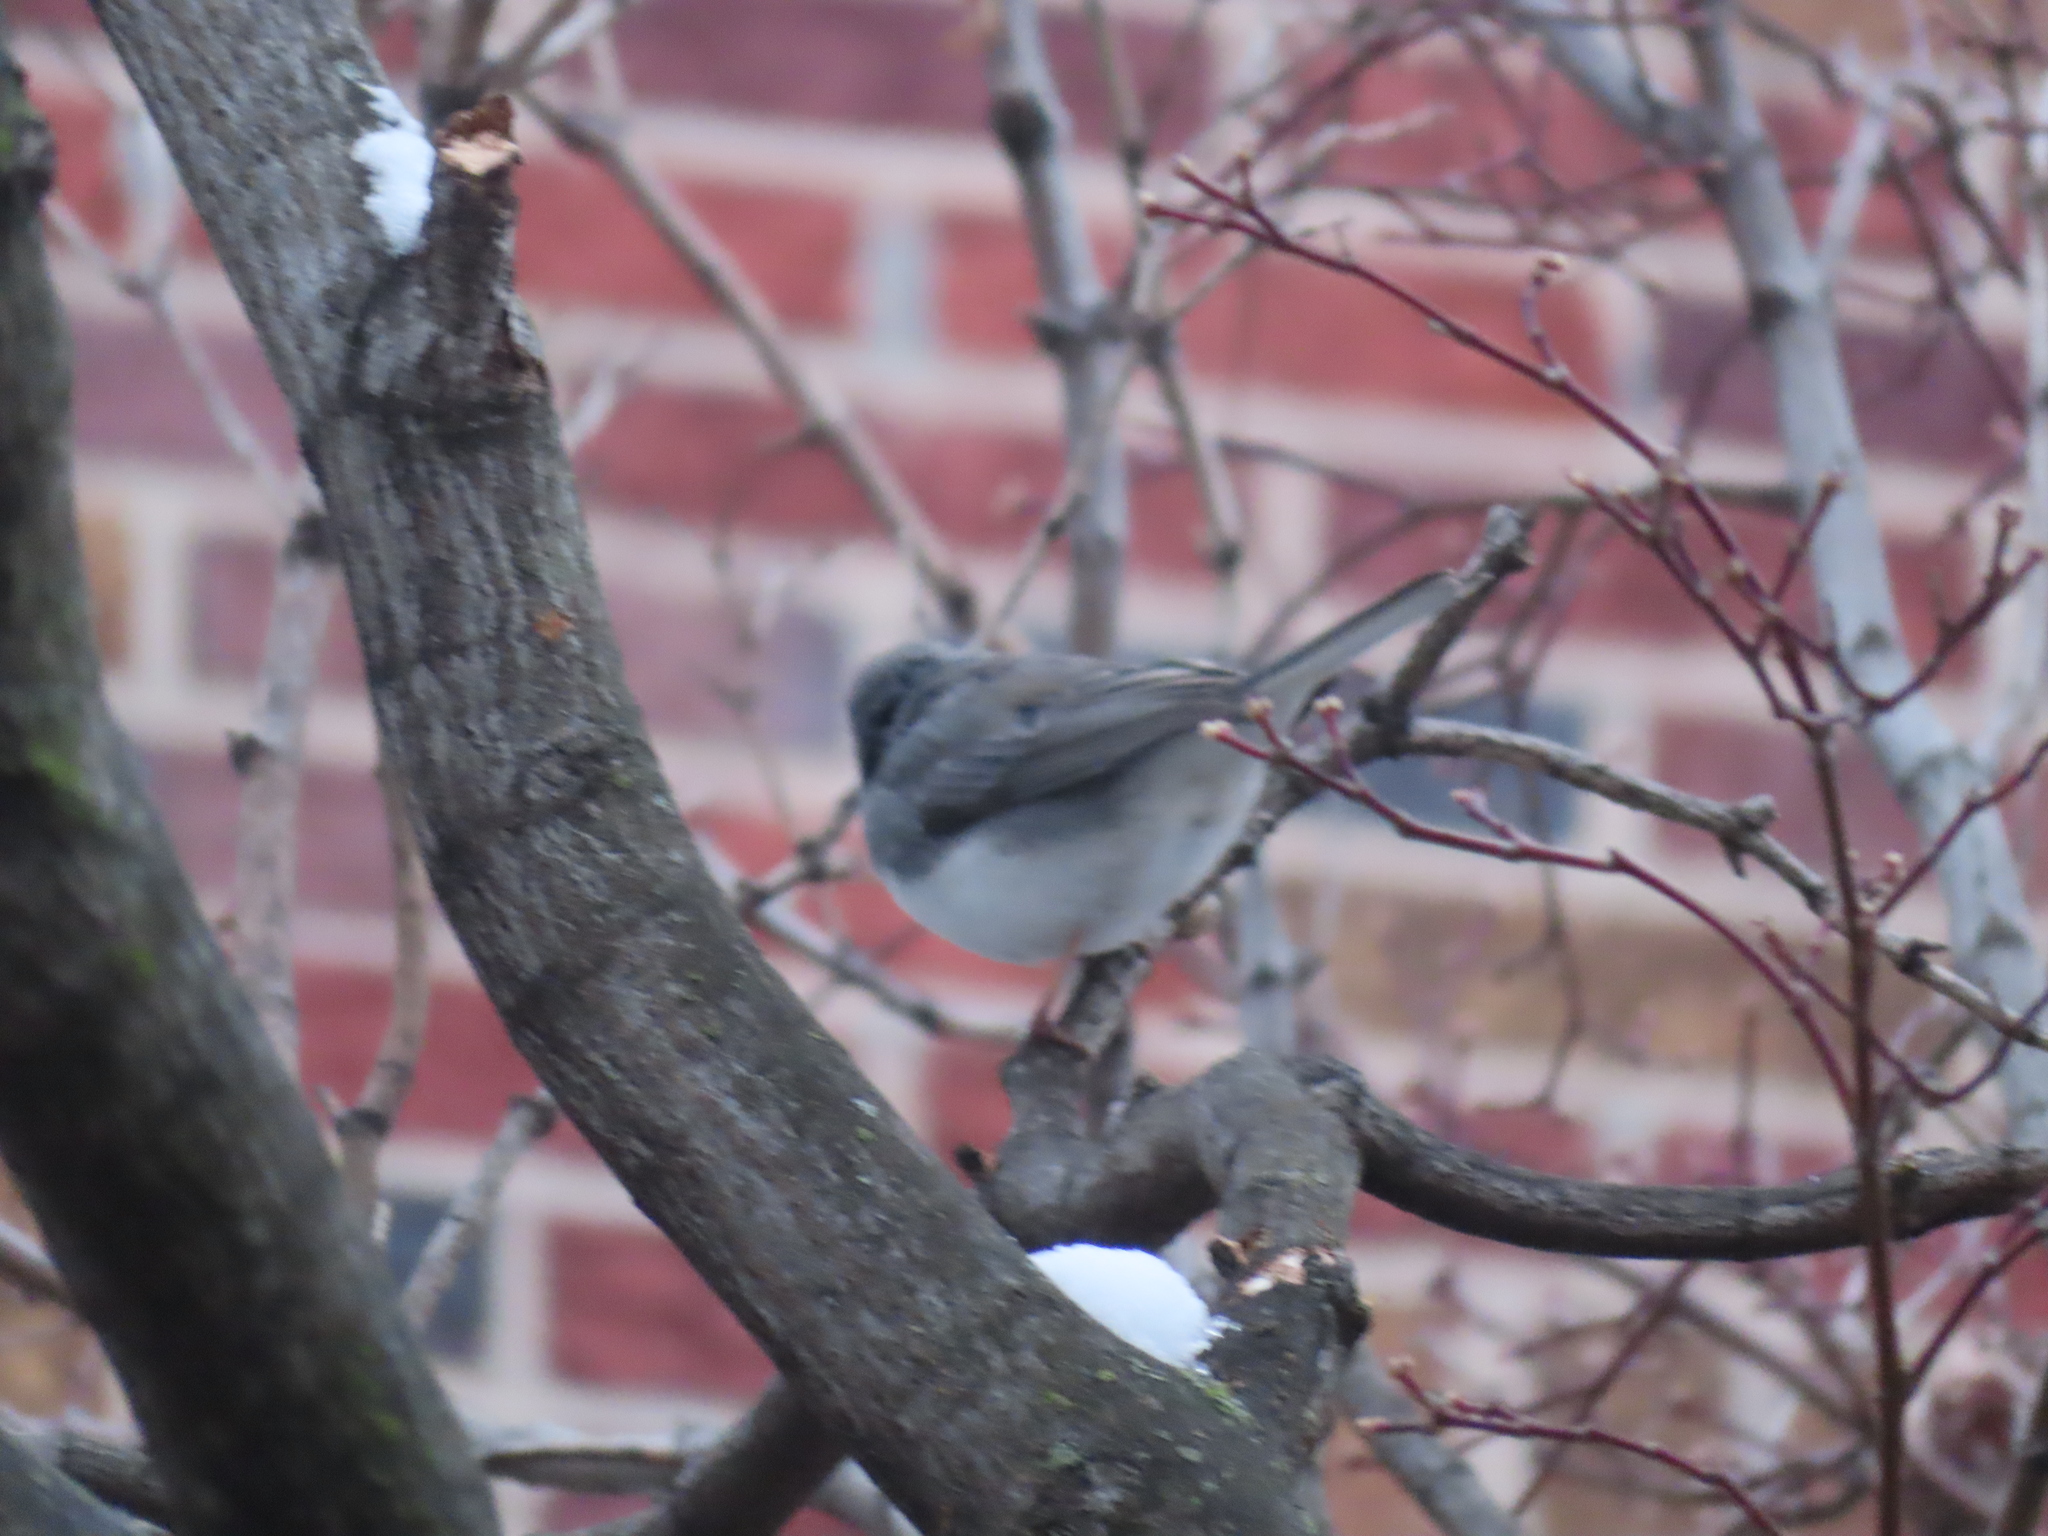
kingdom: Animalia
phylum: Chordata
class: Aves
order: Passeriformes
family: Passerellidae
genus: Junco
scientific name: Junco hyemalis
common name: Dark-eyed junco
